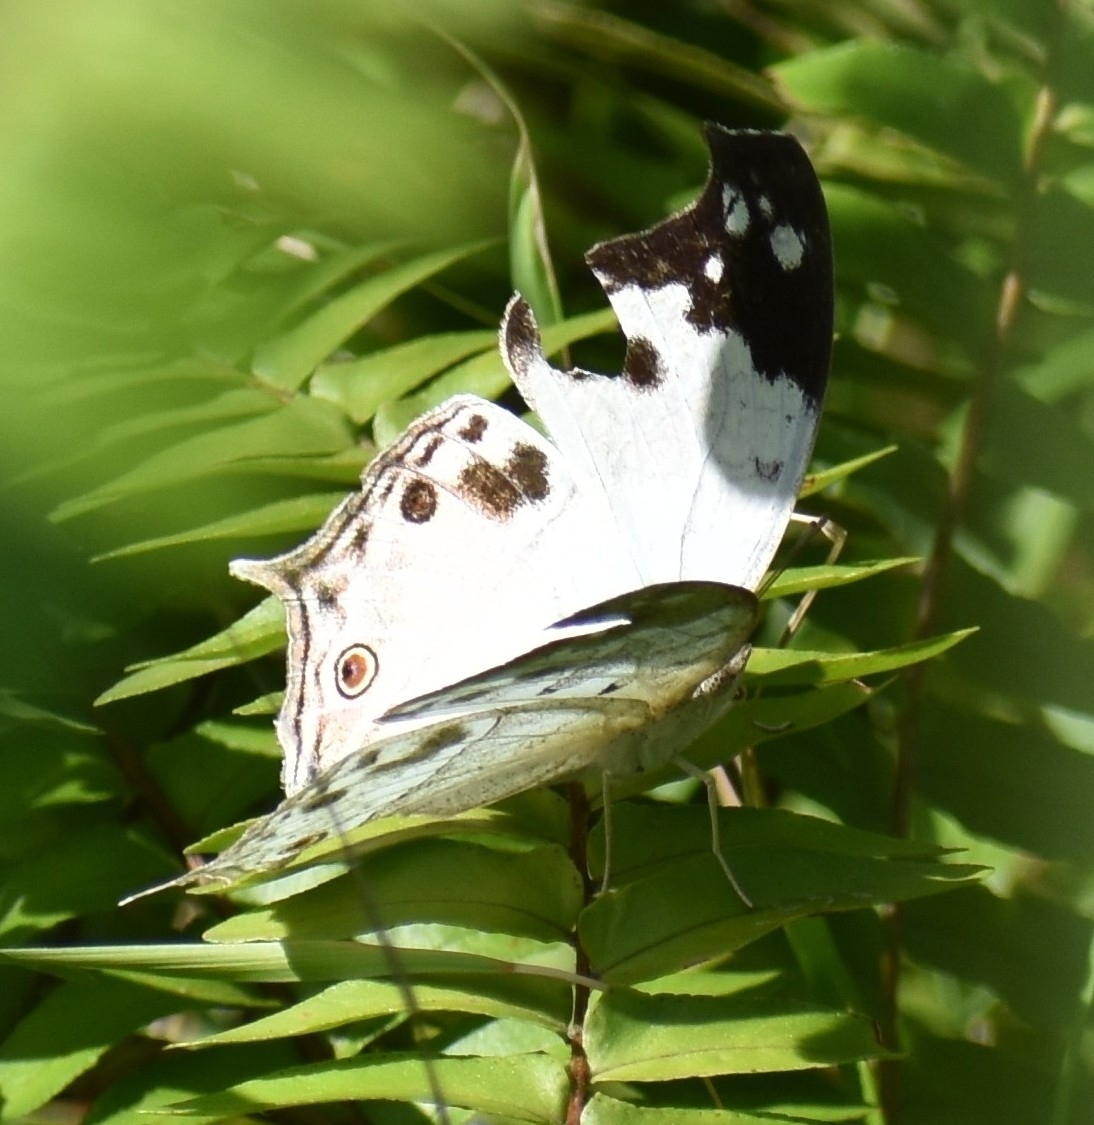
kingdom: Animalia
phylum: Arthropoda
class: Insecta
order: Lepidoptera
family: Nymphalidae
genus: Salamis
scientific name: Salamis
